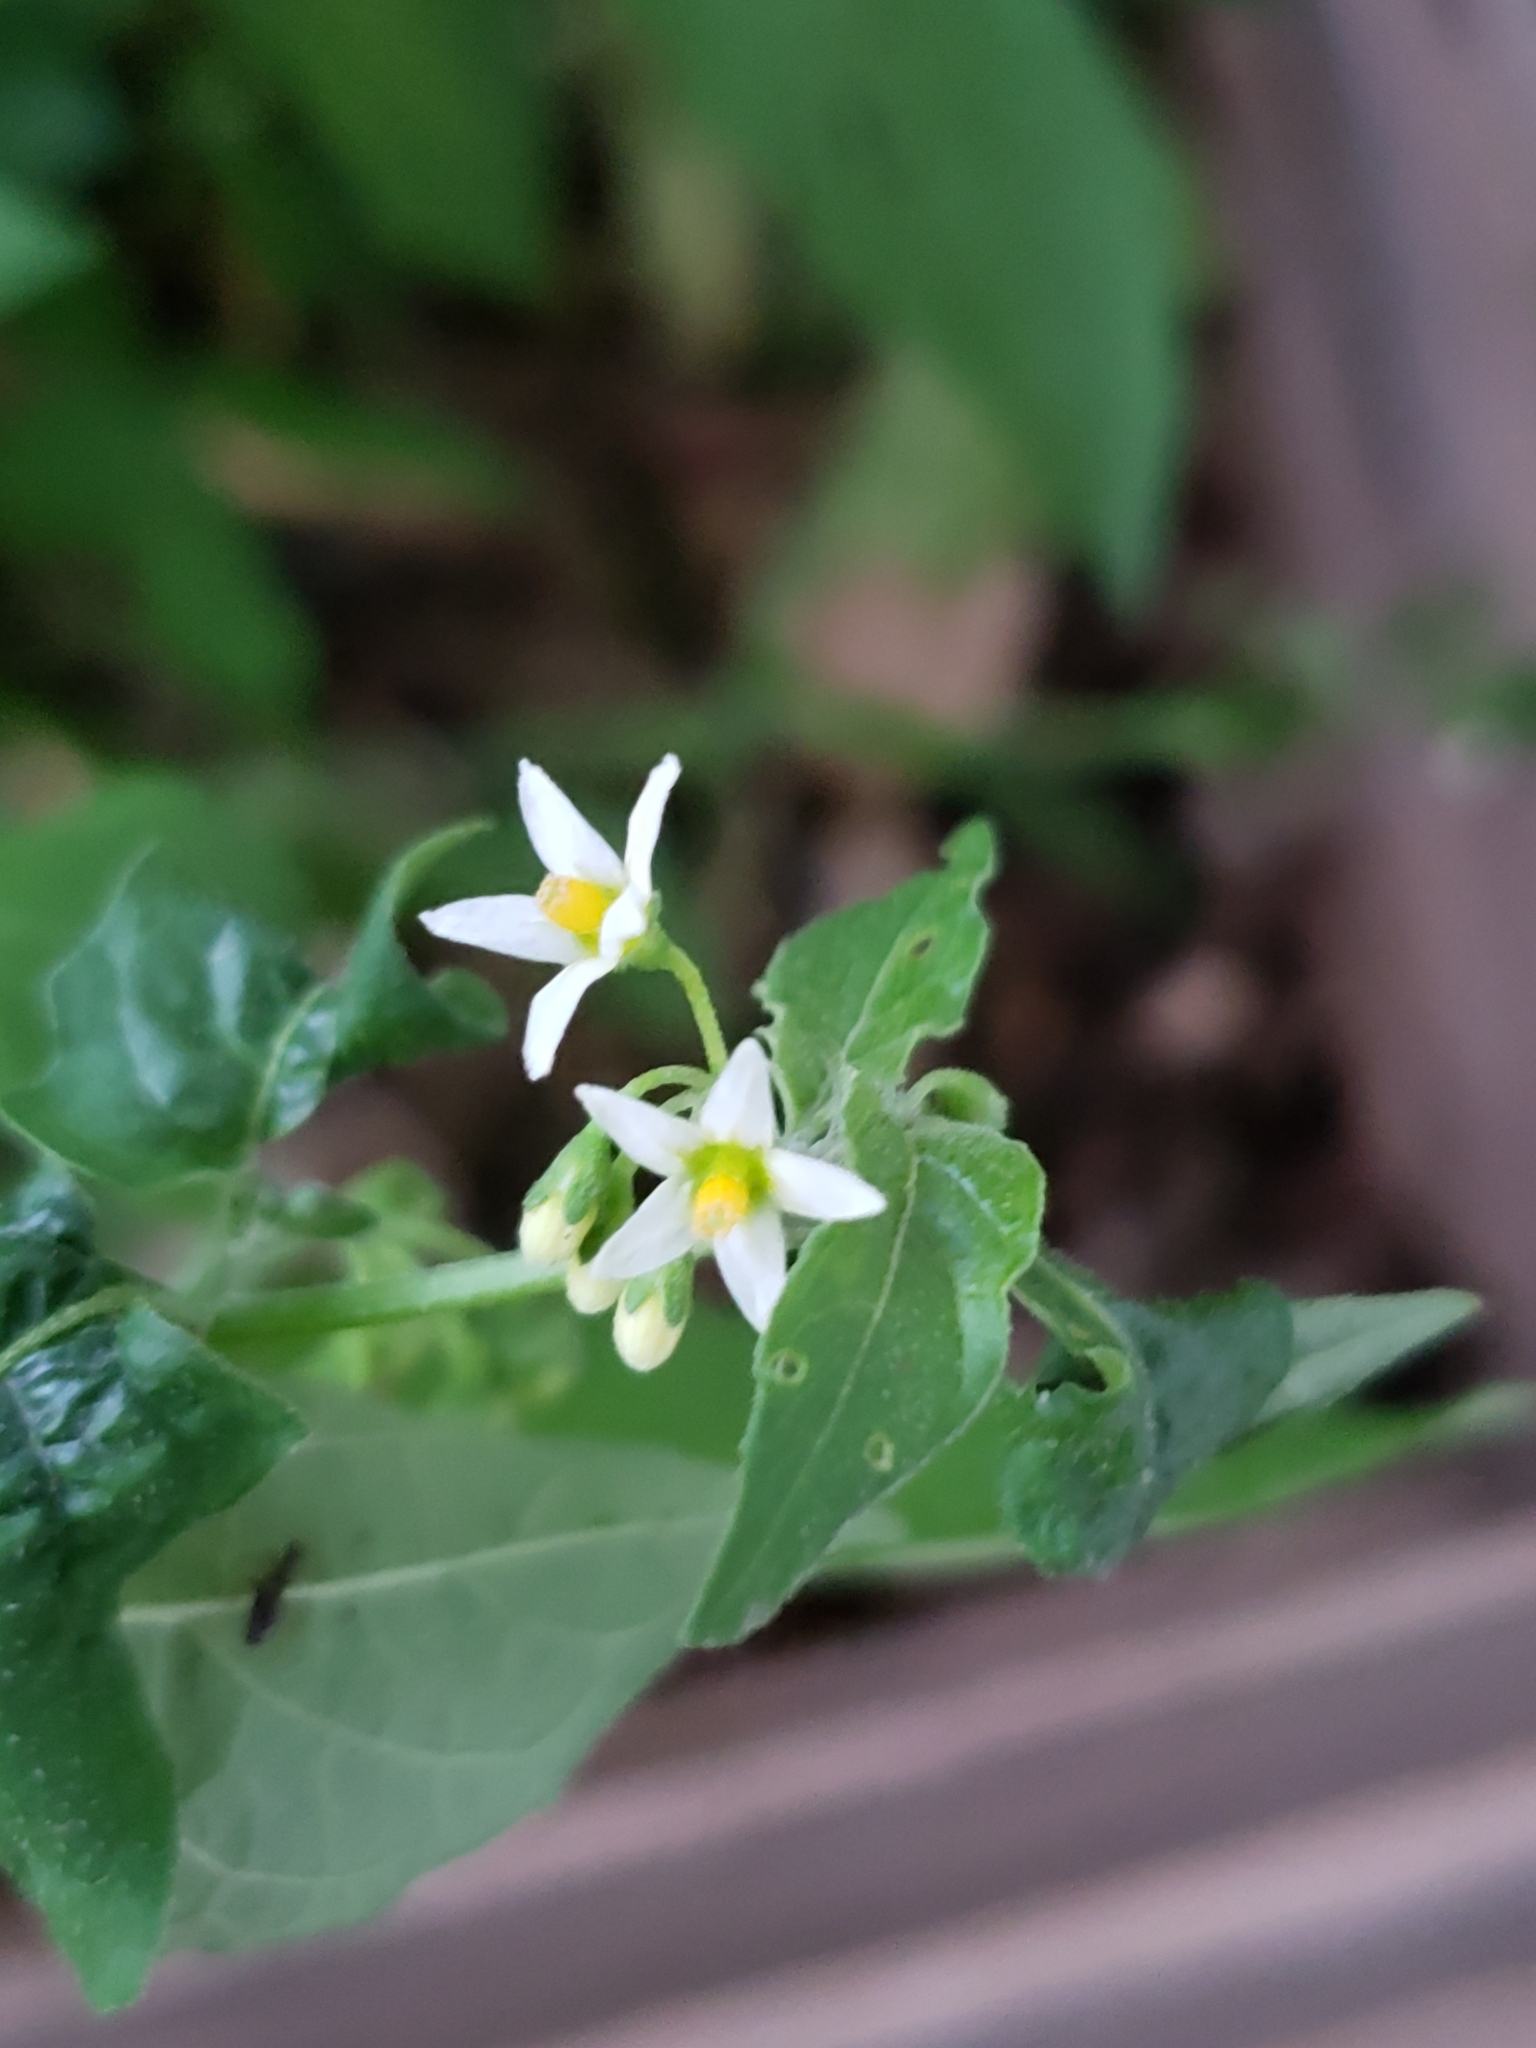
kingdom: Plantae
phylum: Tracheophyta
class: Magnoliopsida
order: Solanales
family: Solanaceae
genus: Solanum
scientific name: Solanum emulans
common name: Eastern black nightshade
